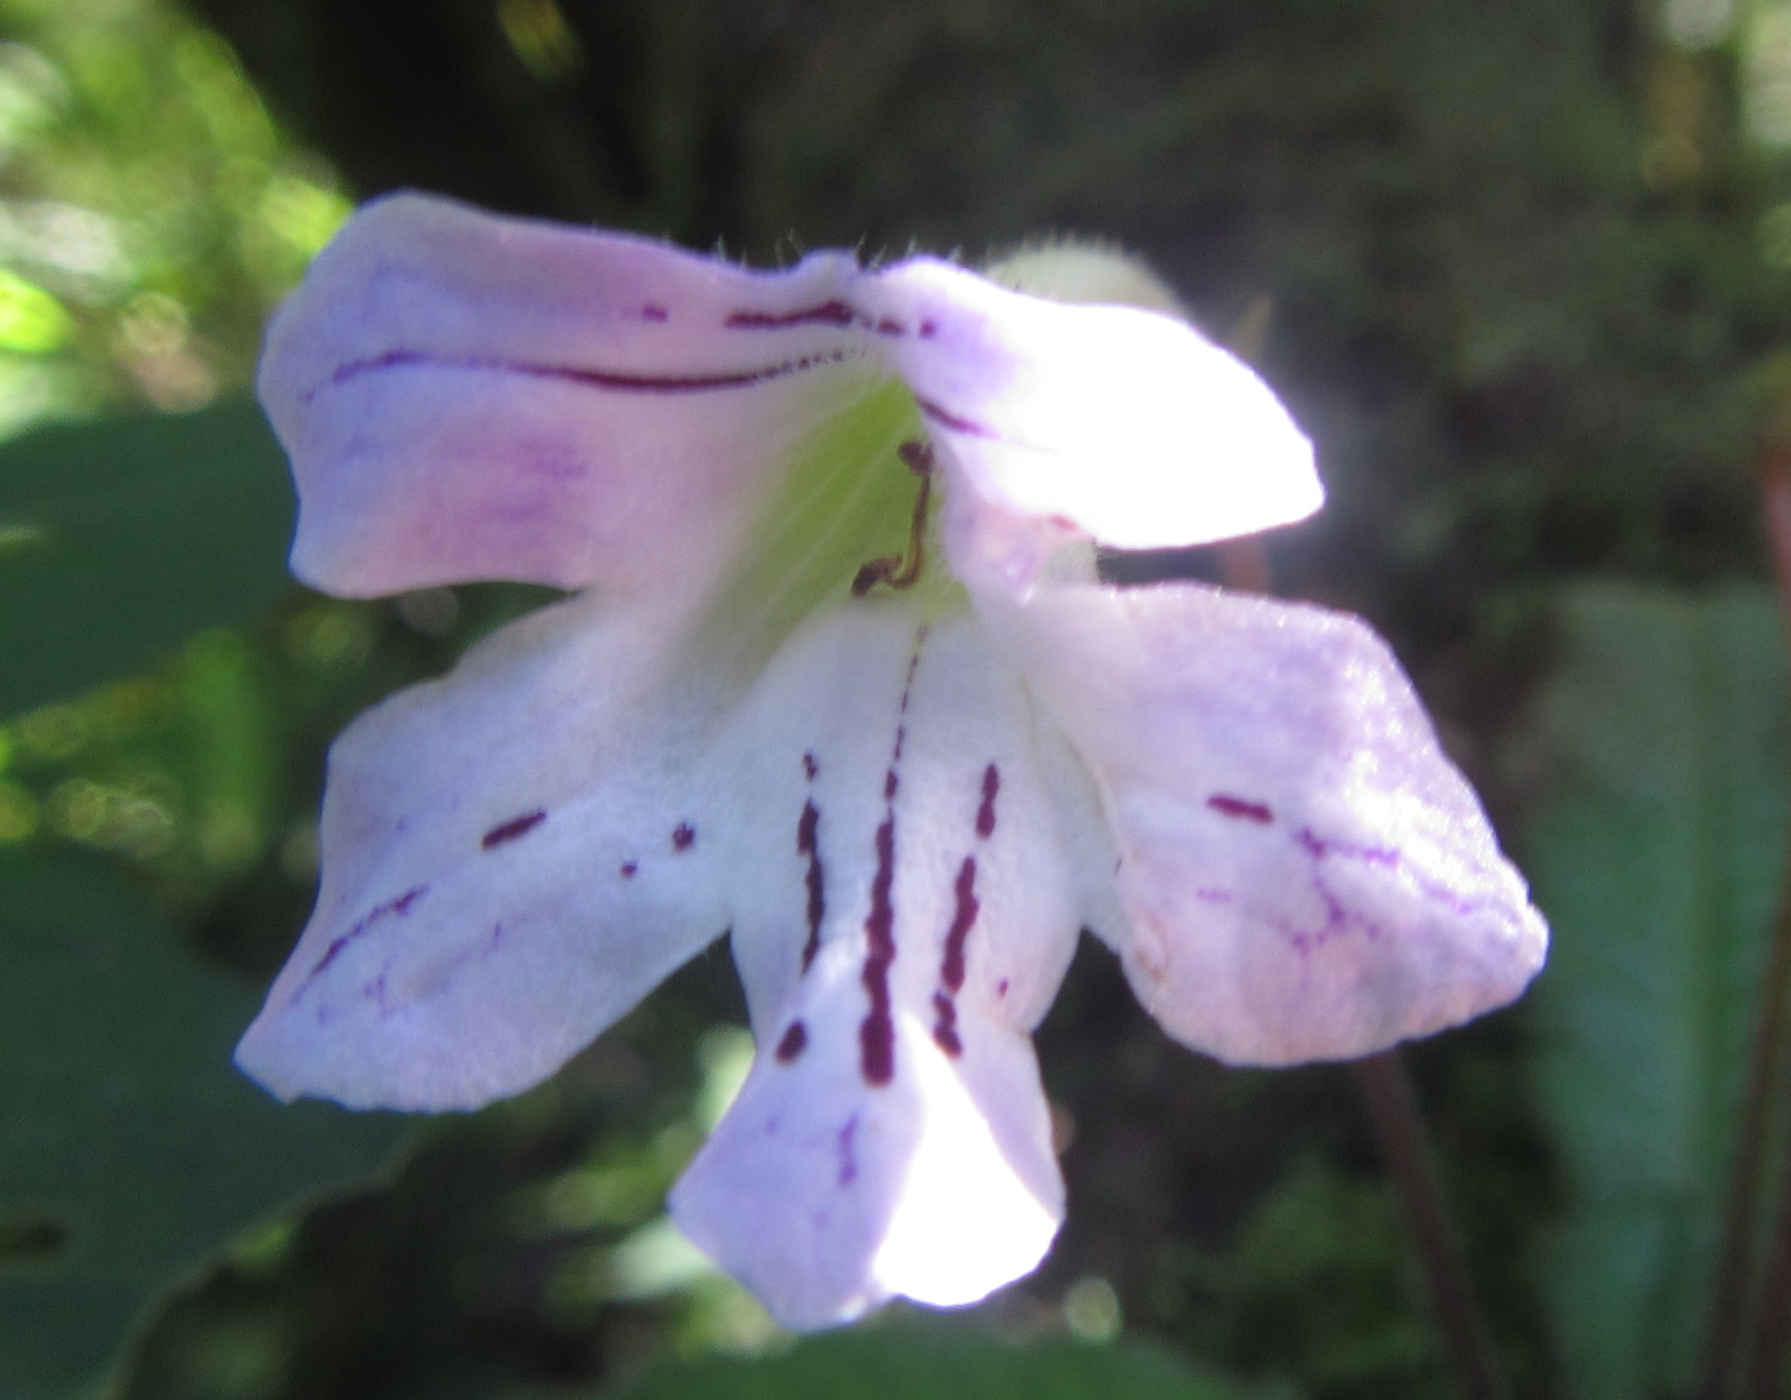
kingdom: Plantae
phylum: Tracheophyta
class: Magnoliopsida
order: Lamiales
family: Gesneriaceae
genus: Streptocarpus
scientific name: Streptocarpus gardenii
